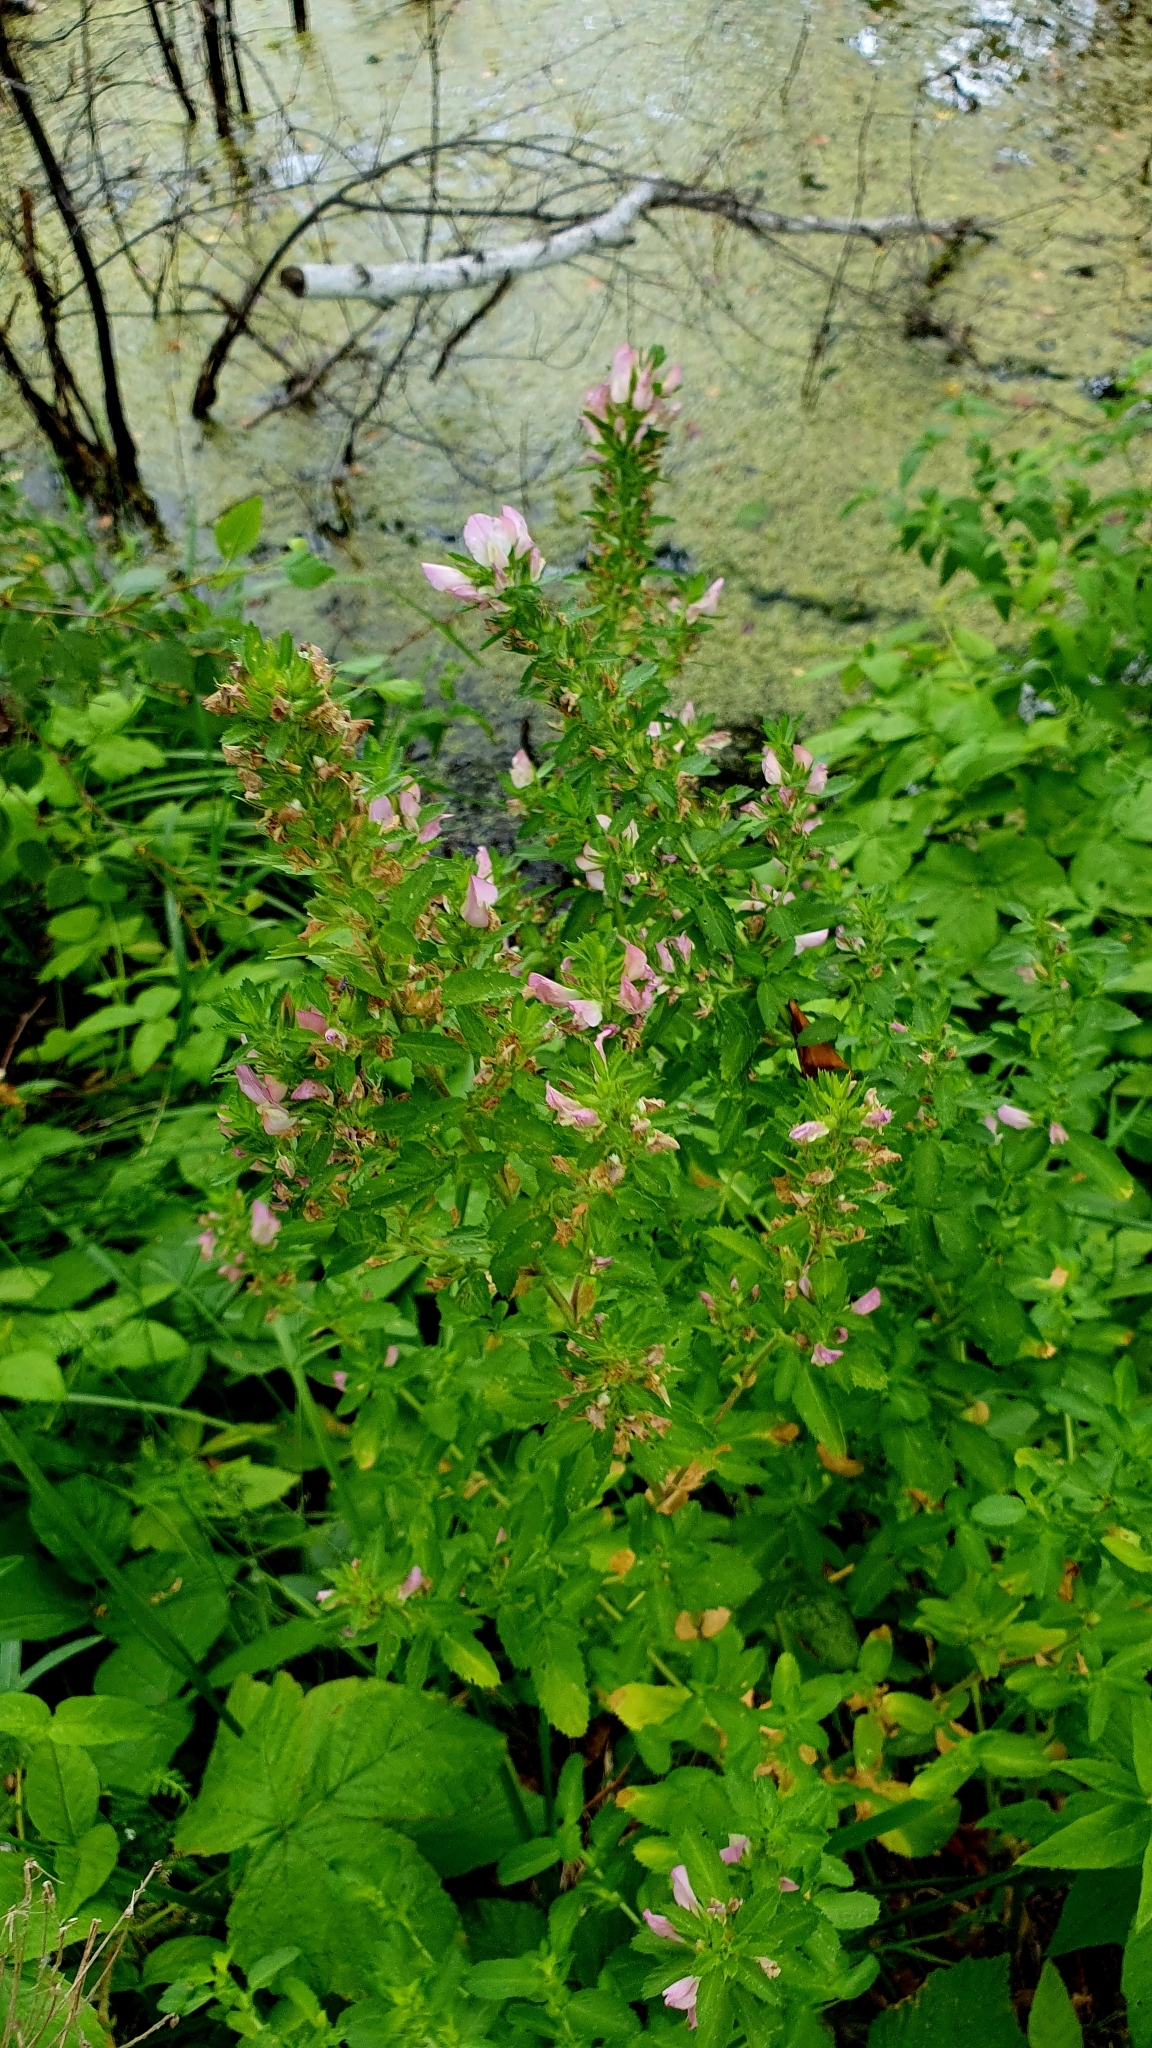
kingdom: Plantae
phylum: Tracheophyta
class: Magnoliopsida
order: Fabales
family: Fabaceae
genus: Ononis
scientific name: Ononis arvensis
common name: Field restharrow
